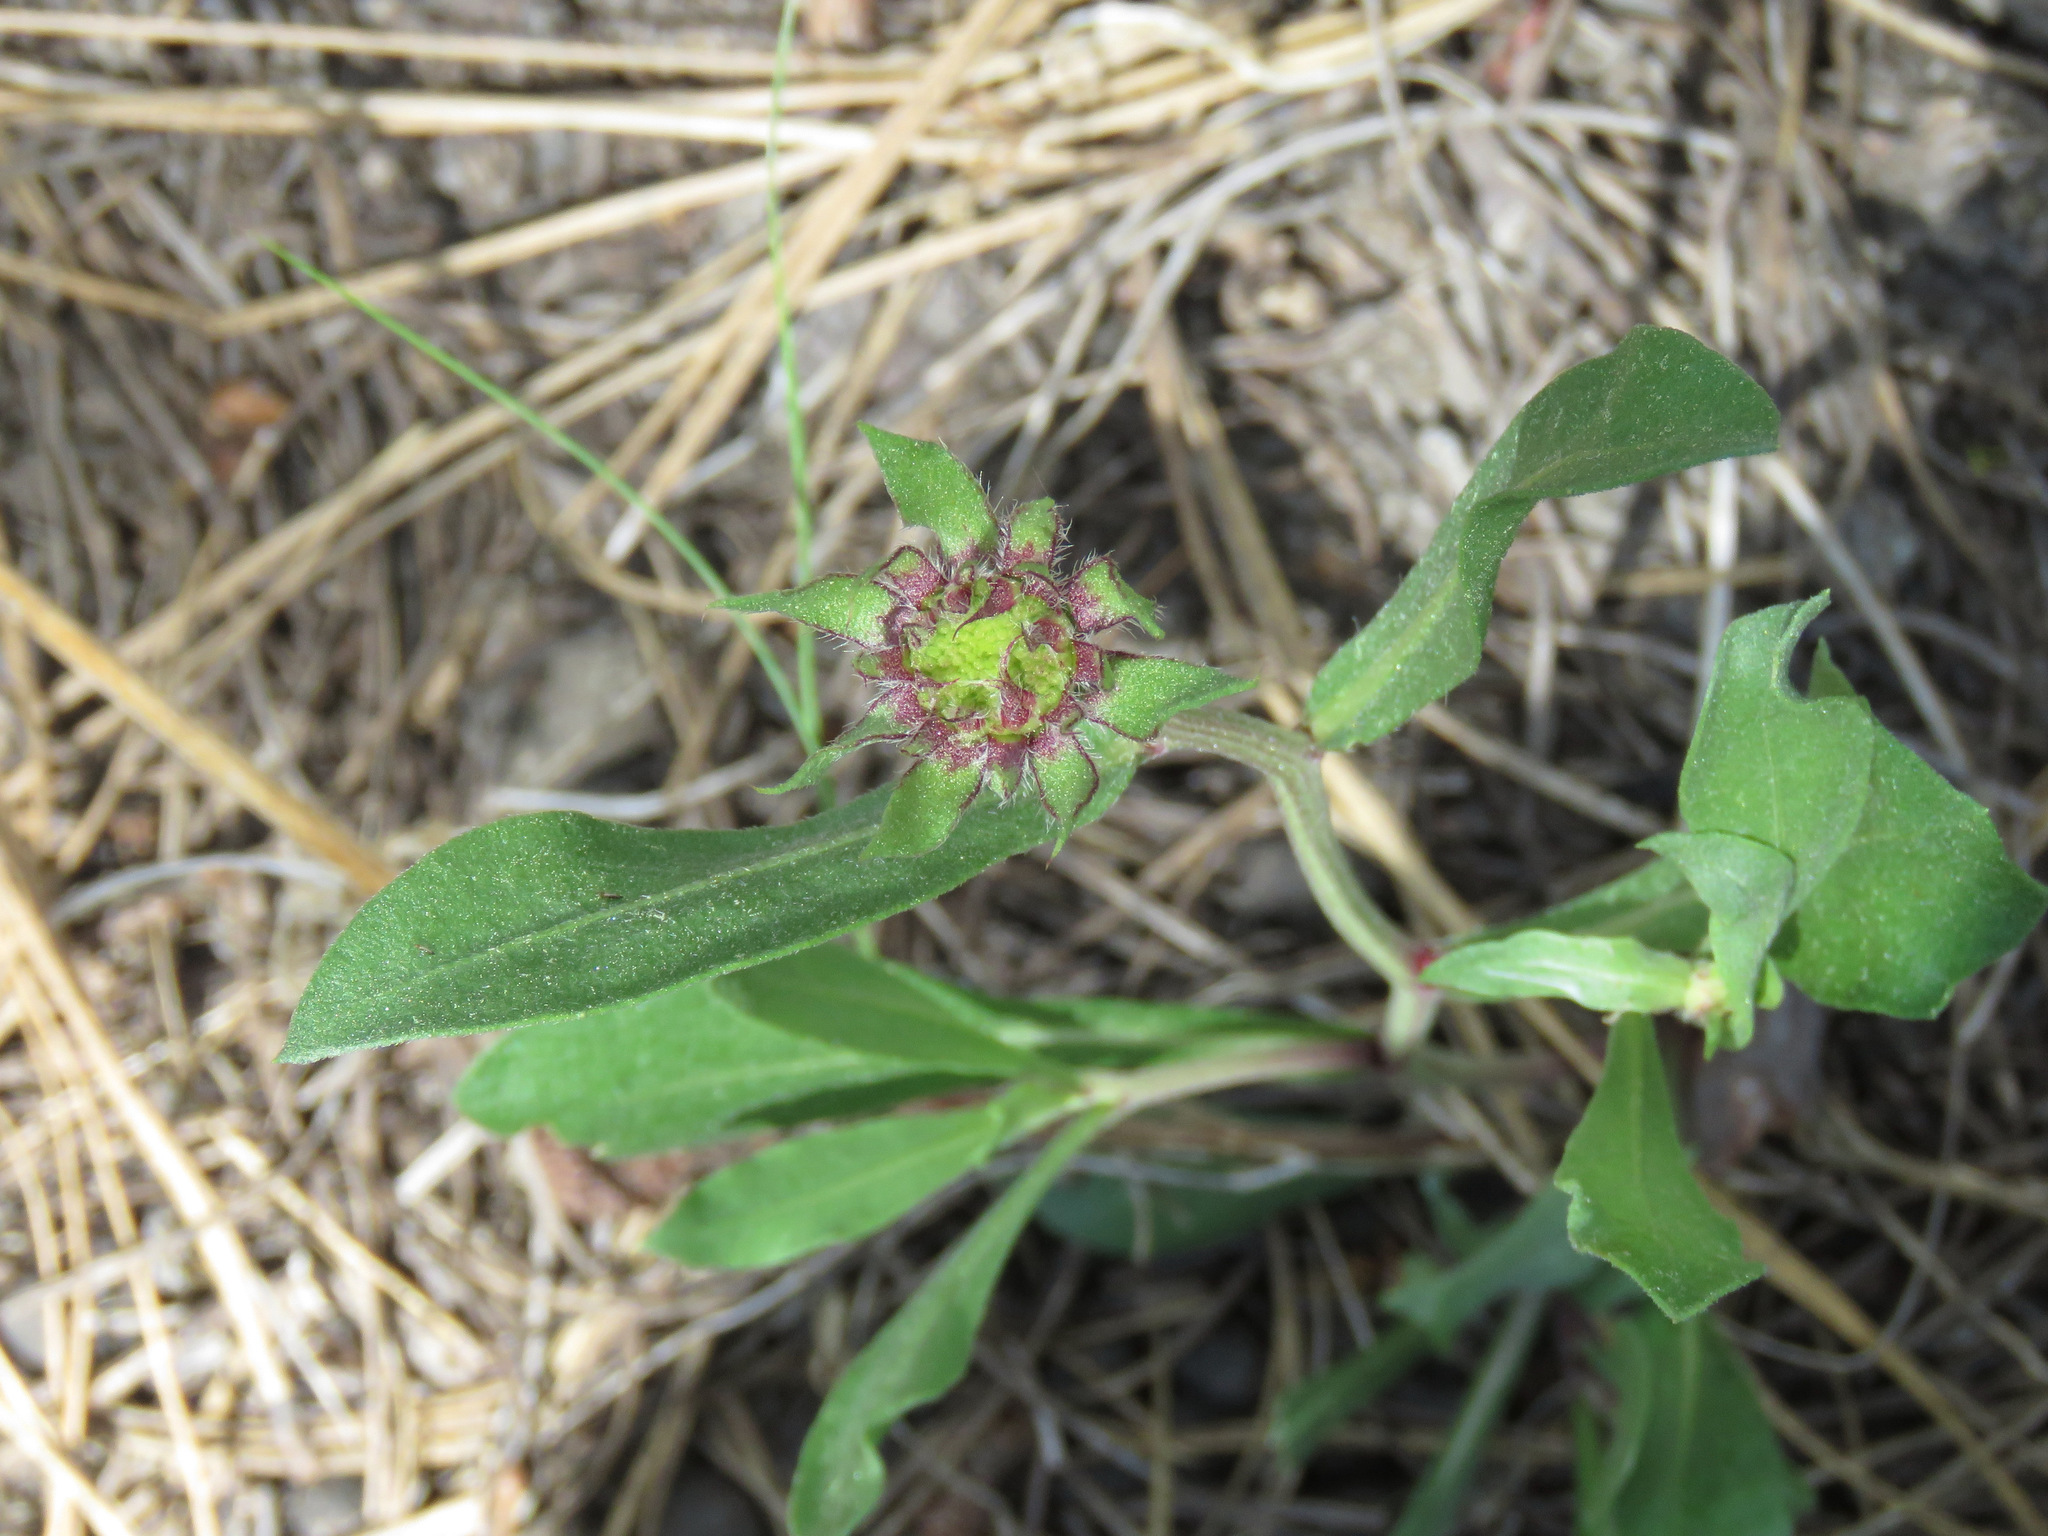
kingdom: Plantae
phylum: Tracheophyta
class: Magnoliopsida
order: Asterales
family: Asteraceae
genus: Gaillardia
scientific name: Gaillardia aristata
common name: Blanket-flower
